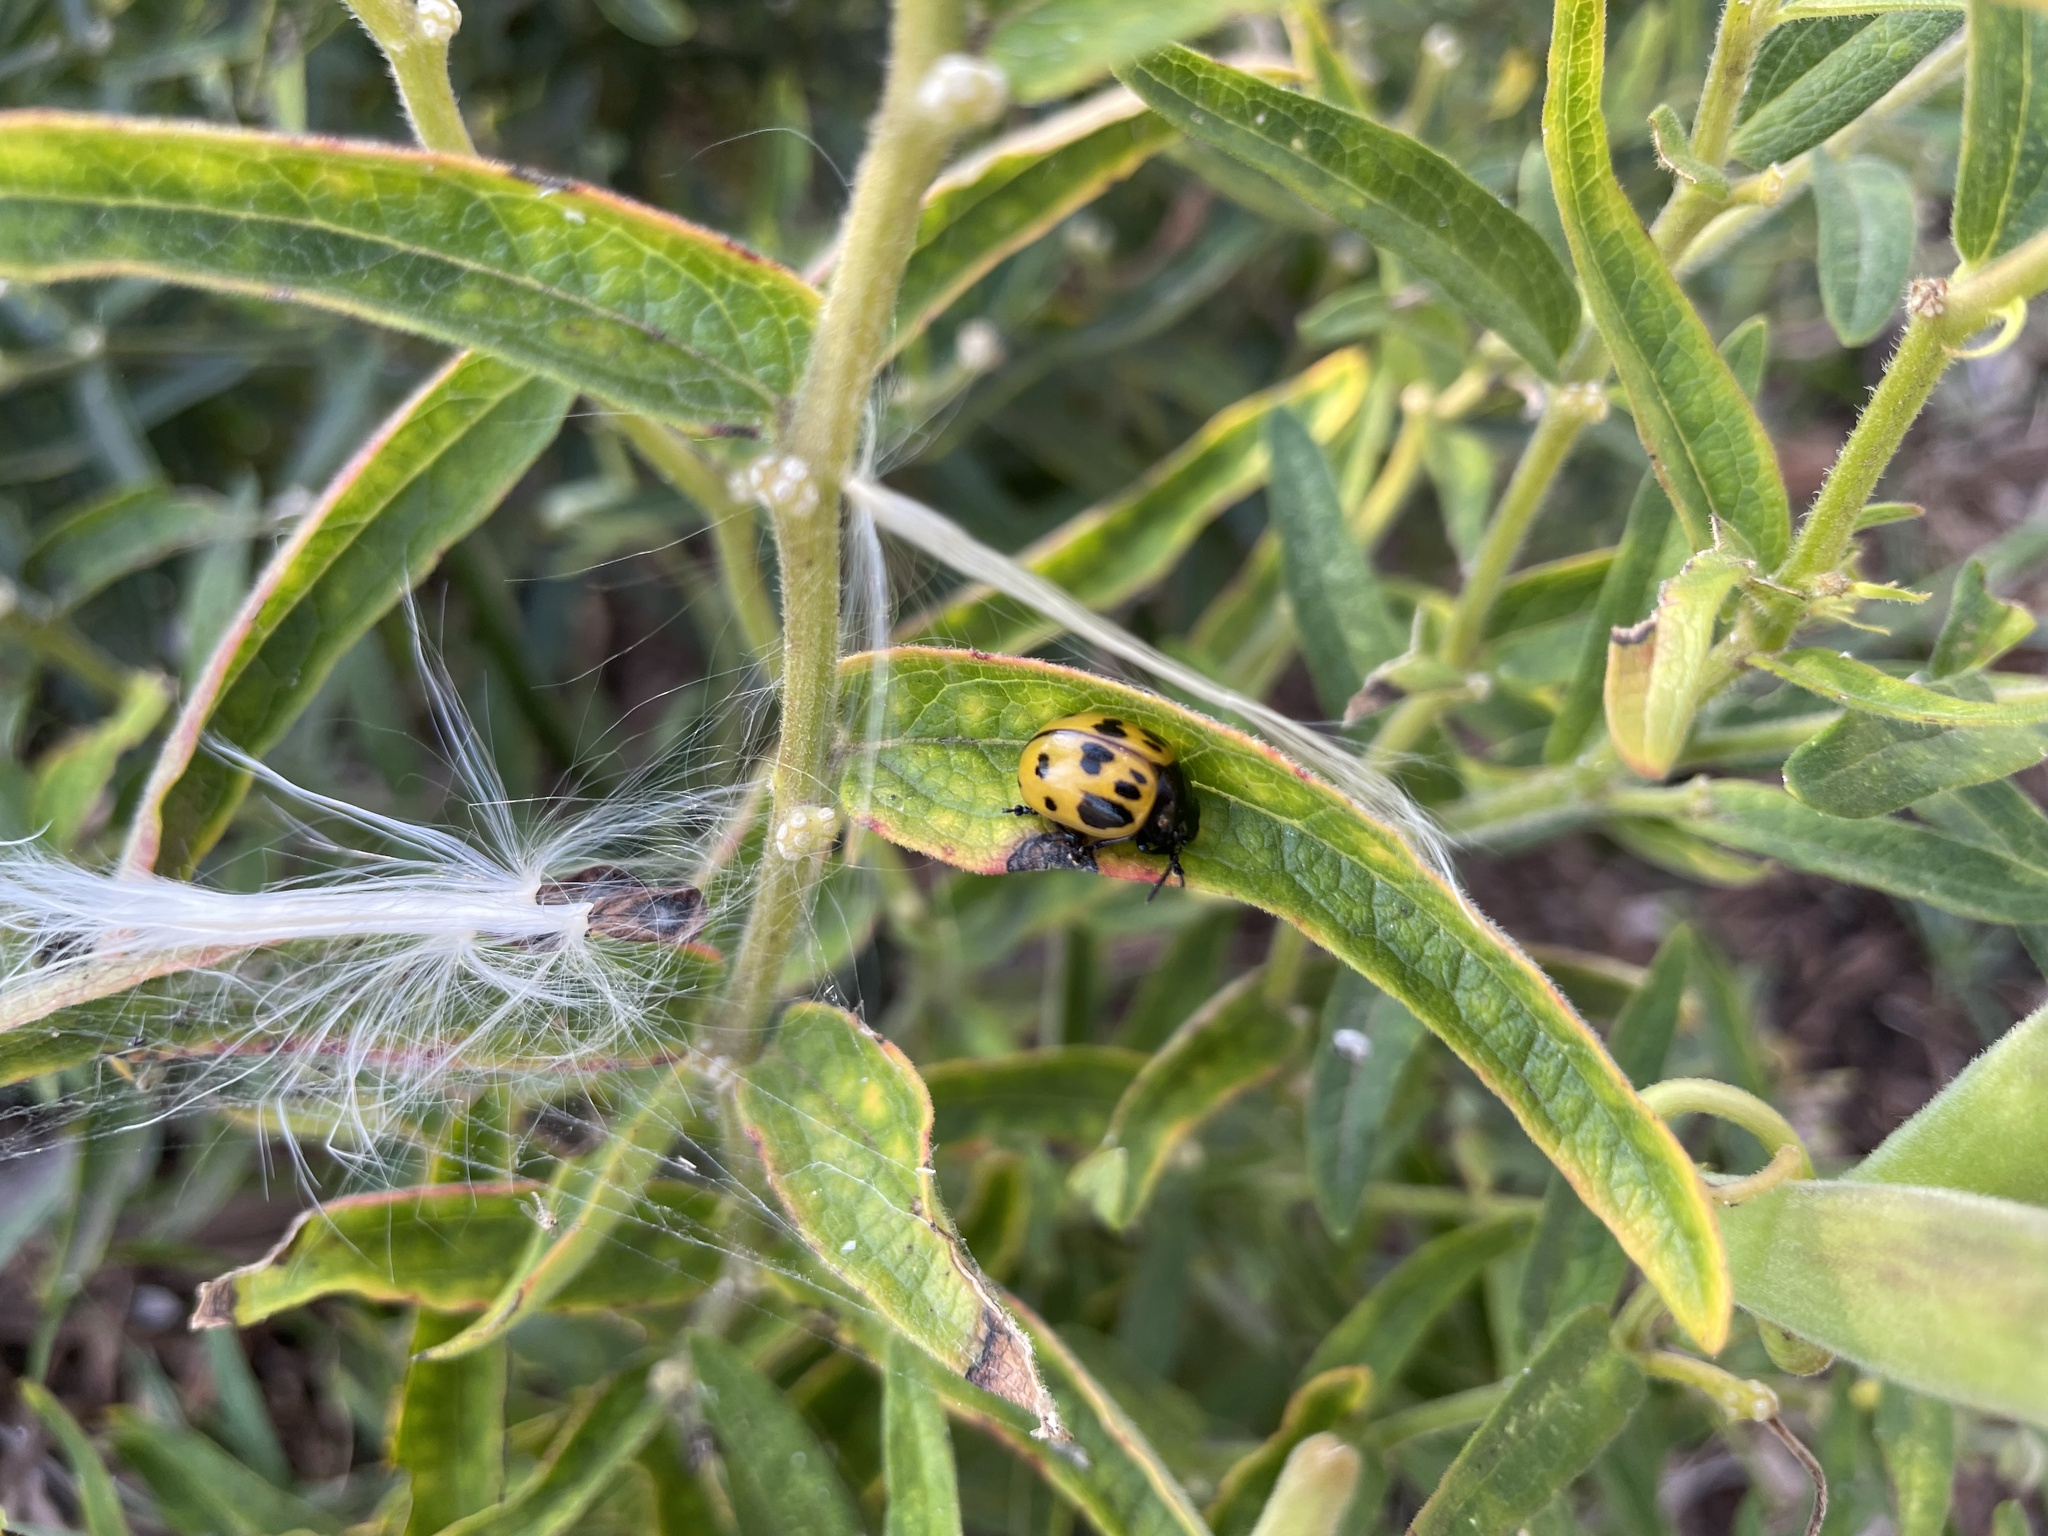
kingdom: Animalia
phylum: Arthropoda
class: Insecta
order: Coleoptera
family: Chrysomelidae
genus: Labidomera
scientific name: Labidomera clivicollis
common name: Swamp milkweed leaf beetle
